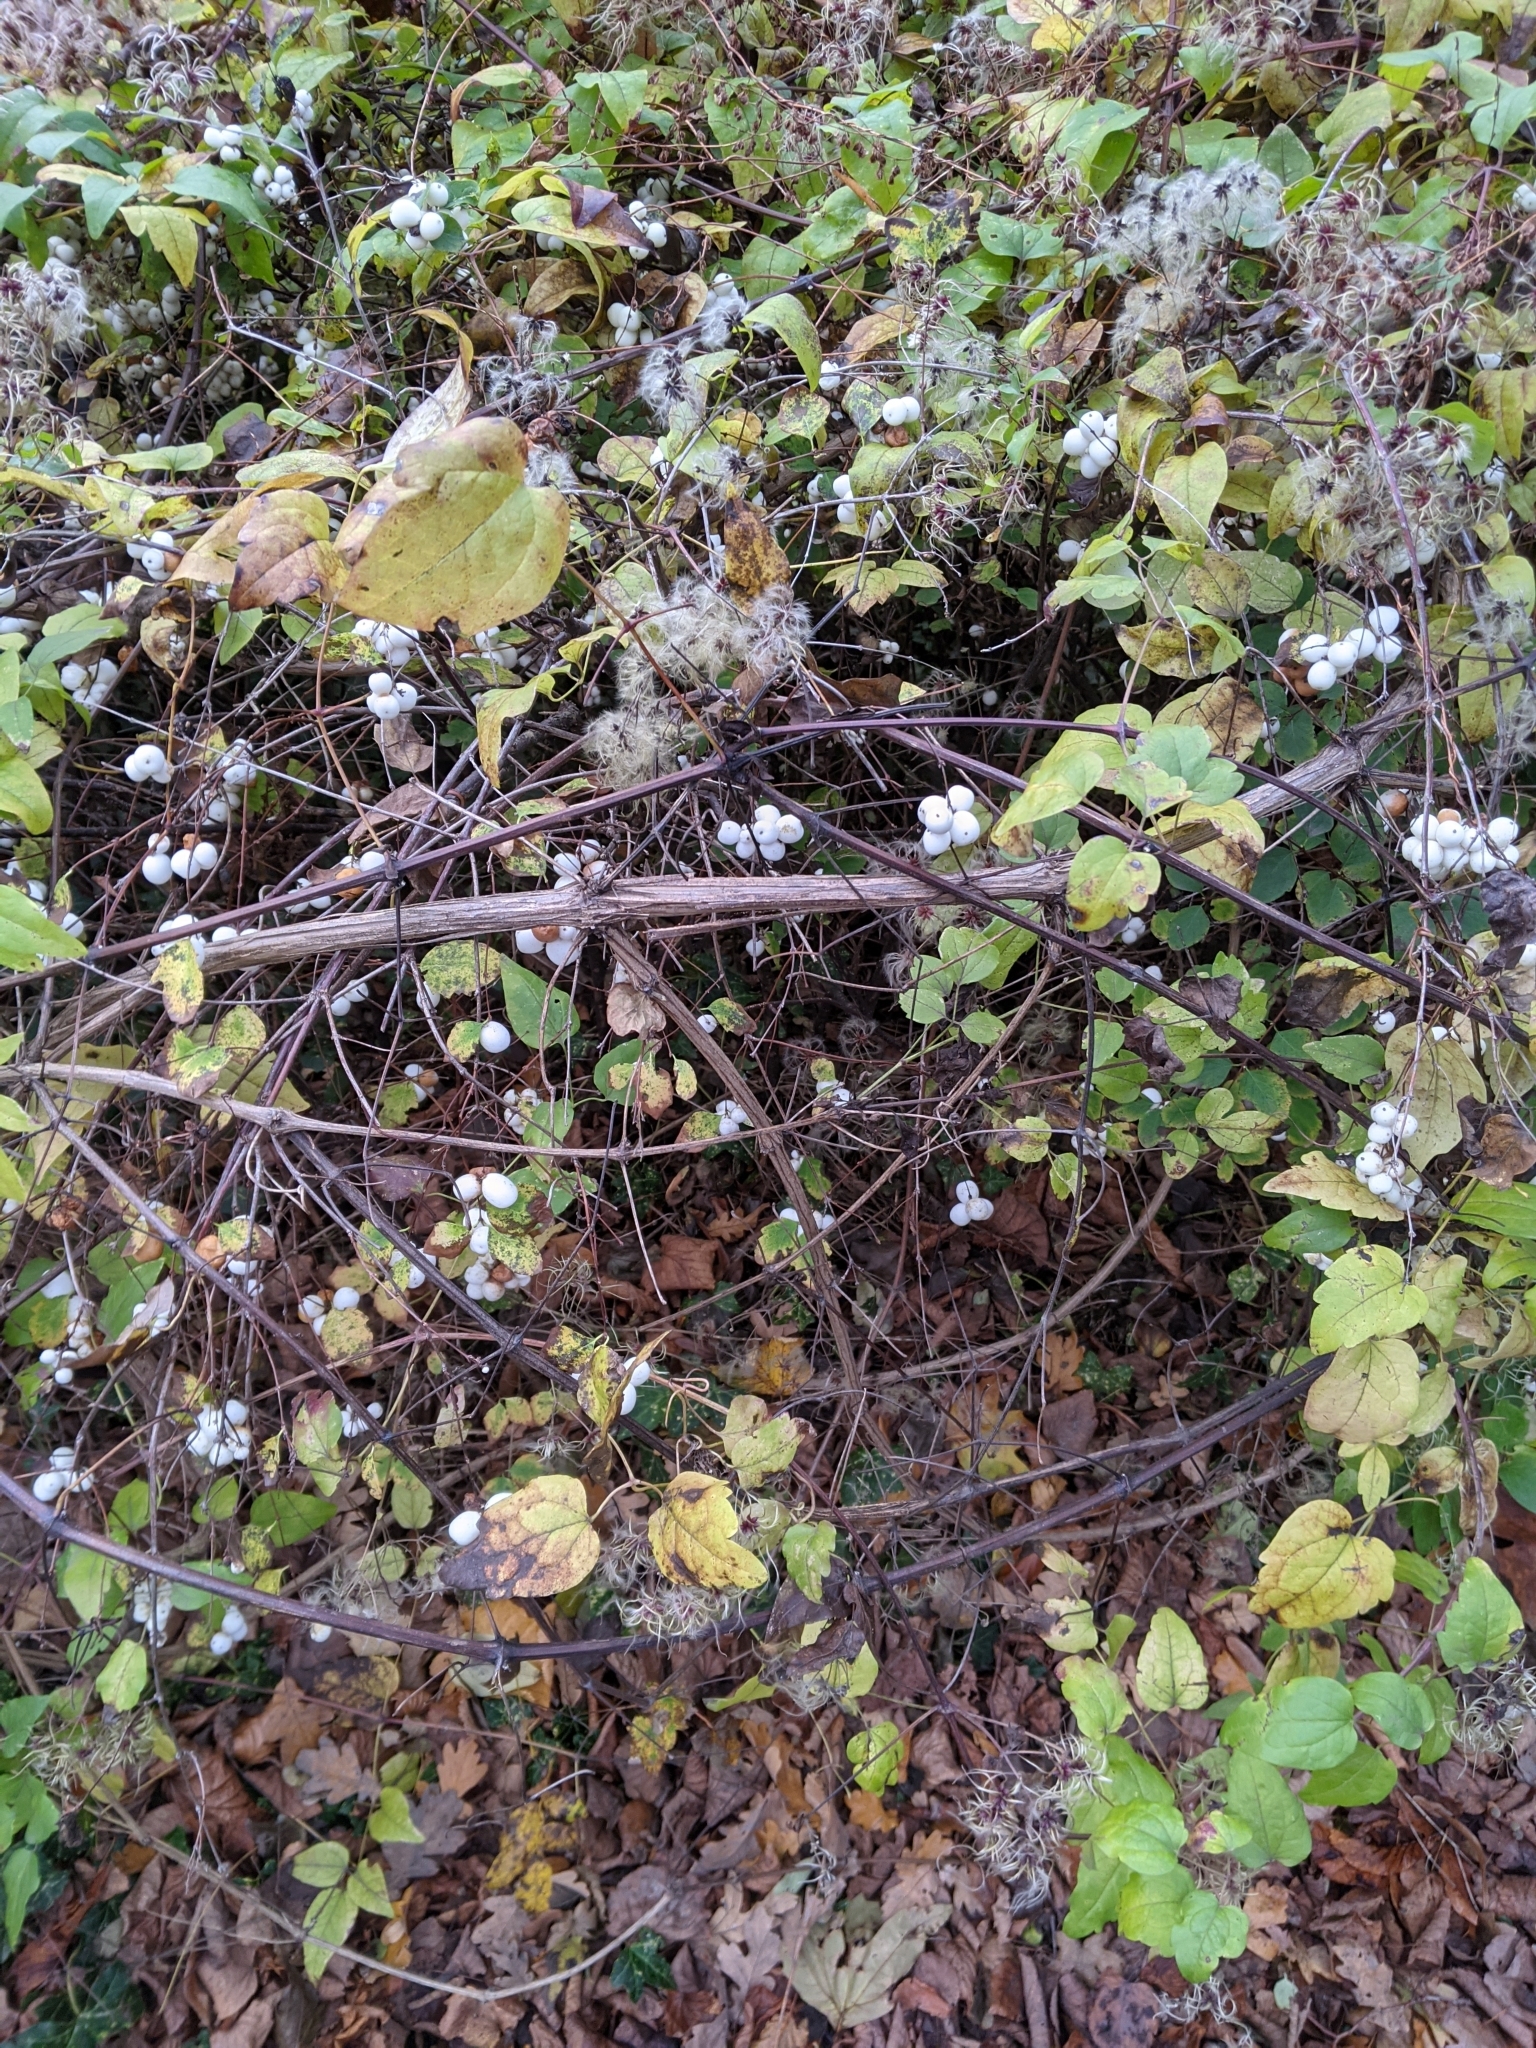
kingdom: Plantae
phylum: Tracheophyta
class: Magnoliopsida
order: Dipsacales
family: Caprifoliaceae
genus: Symphoricarpos
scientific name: Symphoricarpos albus
